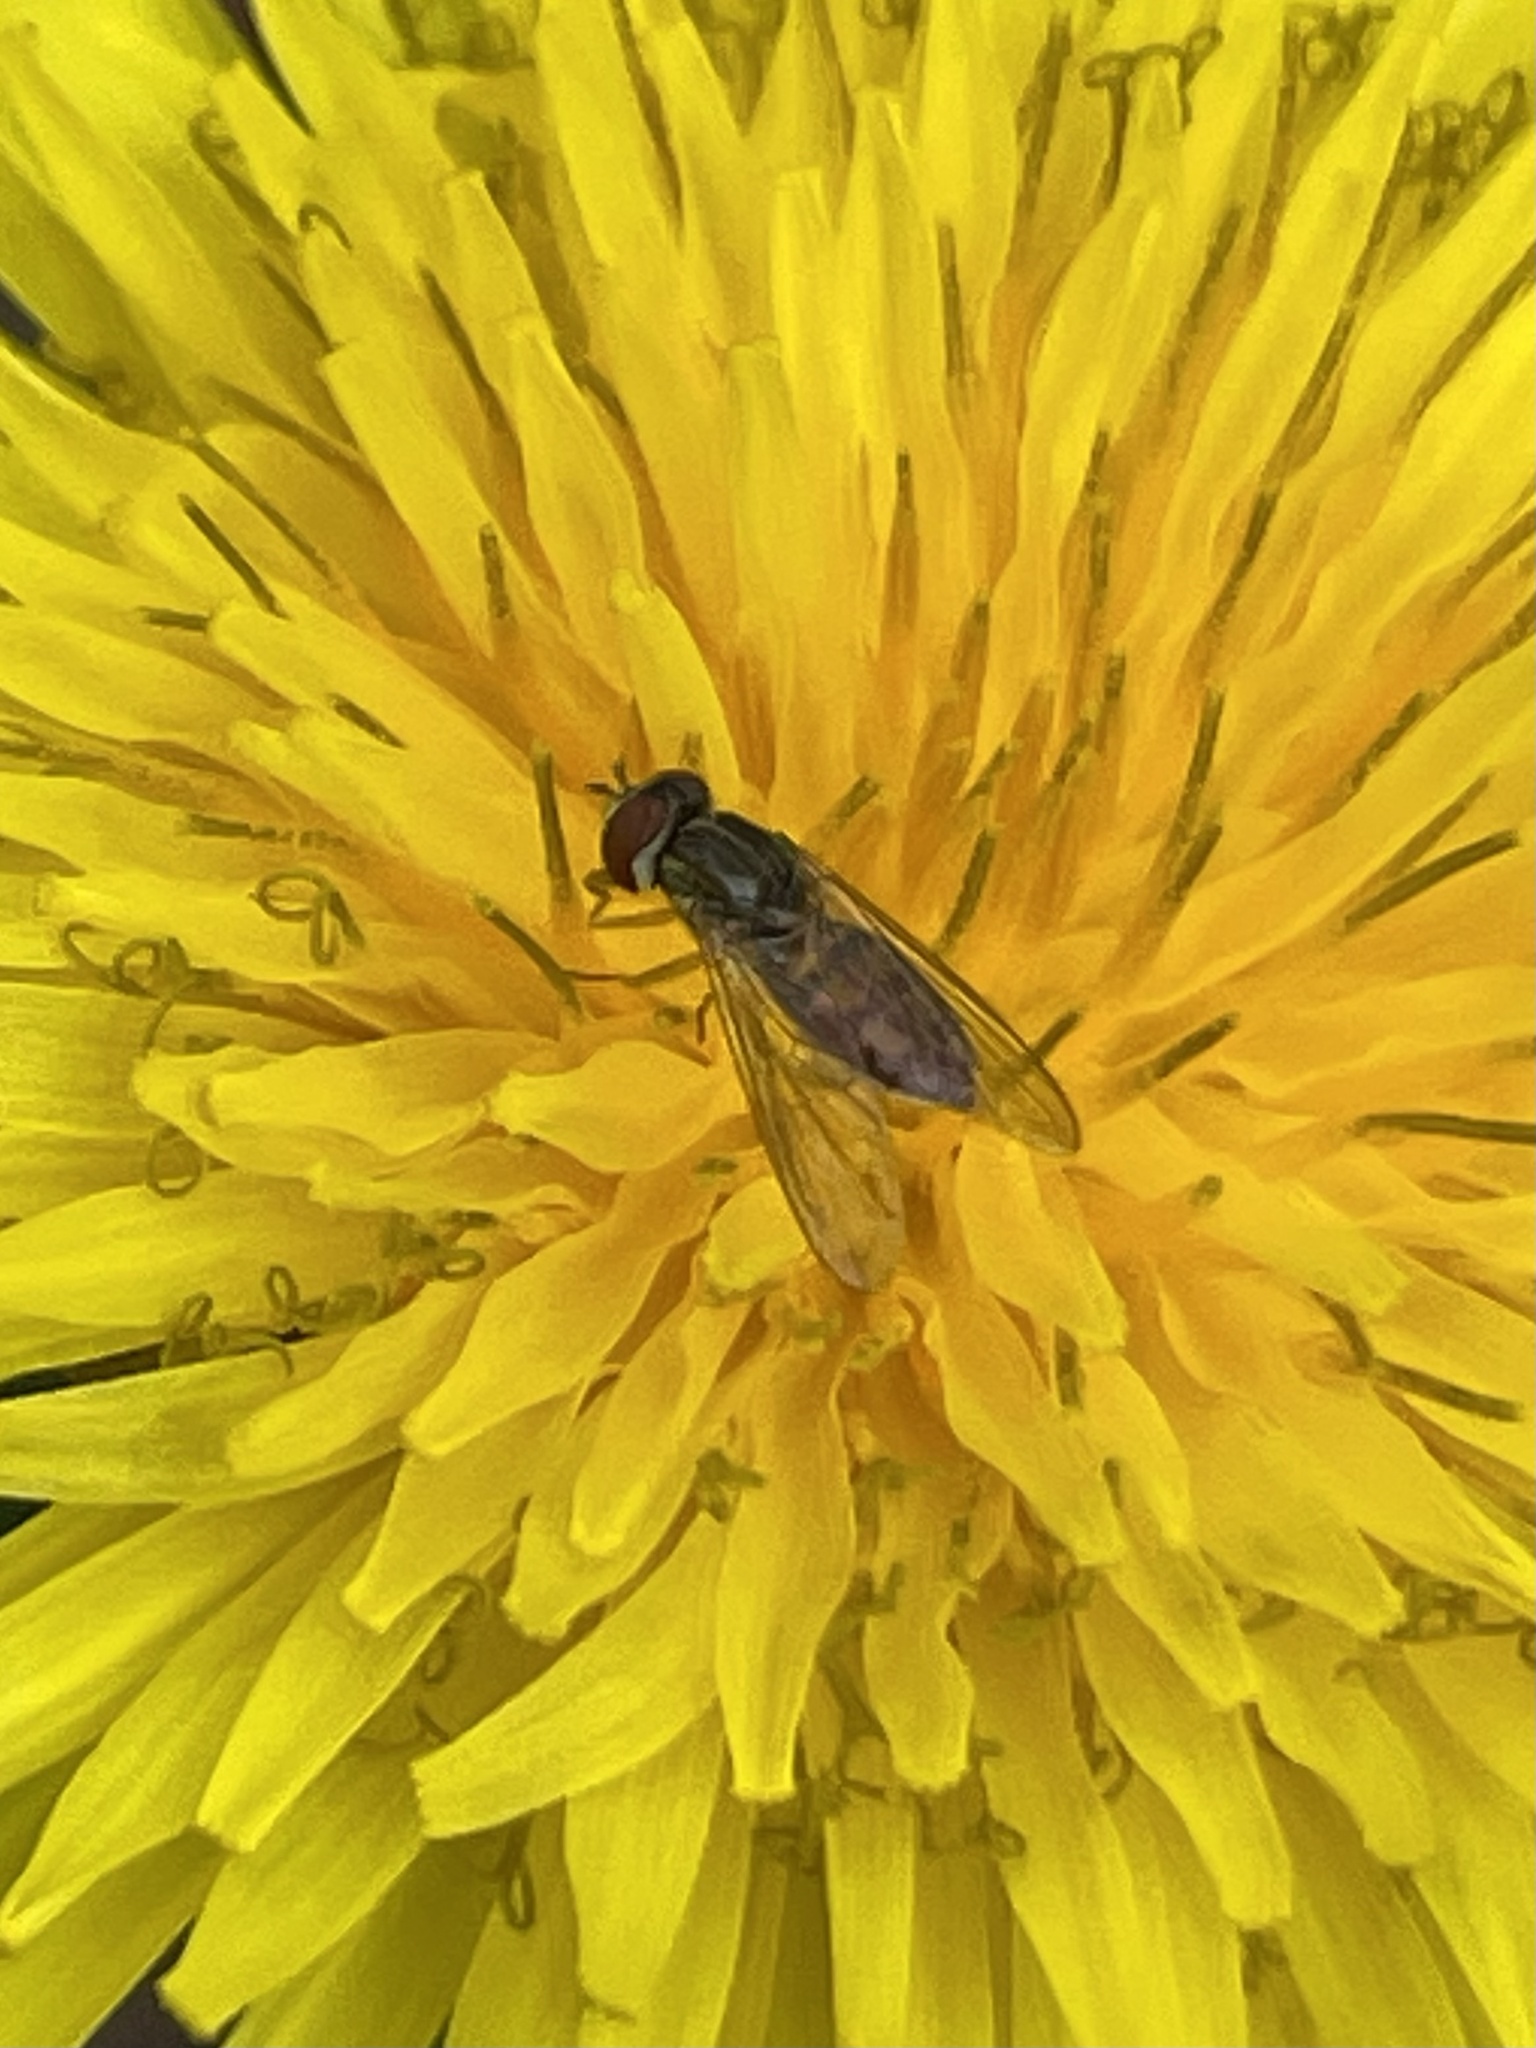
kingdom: Animalia
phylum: Arthropoda
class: Insecta
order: Diptera
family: Syrphidae
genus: Toxomerus
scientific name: Toxomerus marginatus
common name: Syrphid fly
